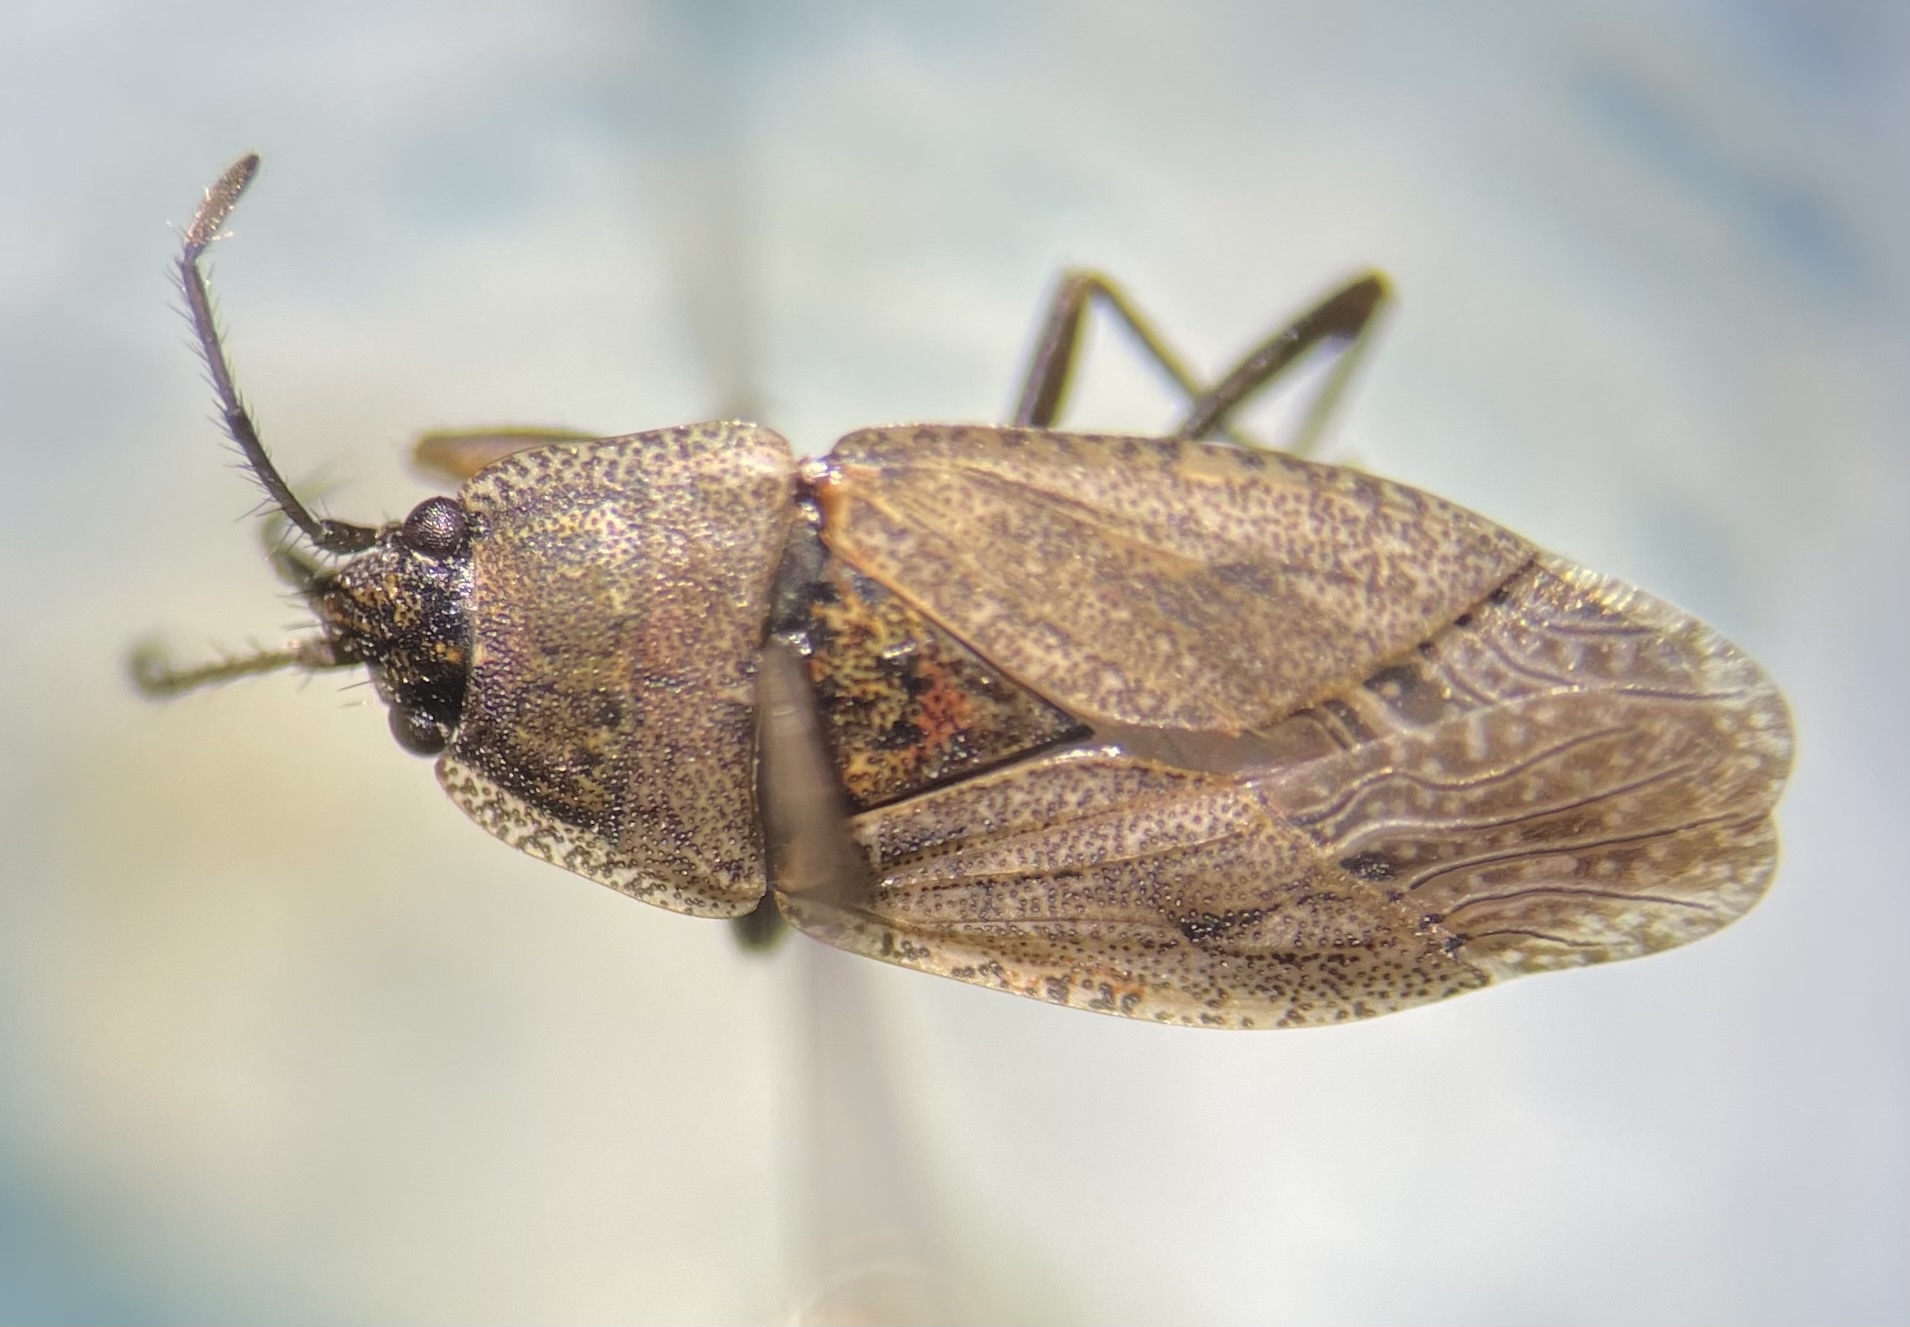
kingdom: Animalia
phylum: Arthropoda
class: Insecta
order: Hemiptera
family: Rhyparochromidae
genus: Emblethis
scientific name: Emblethis vicarius
